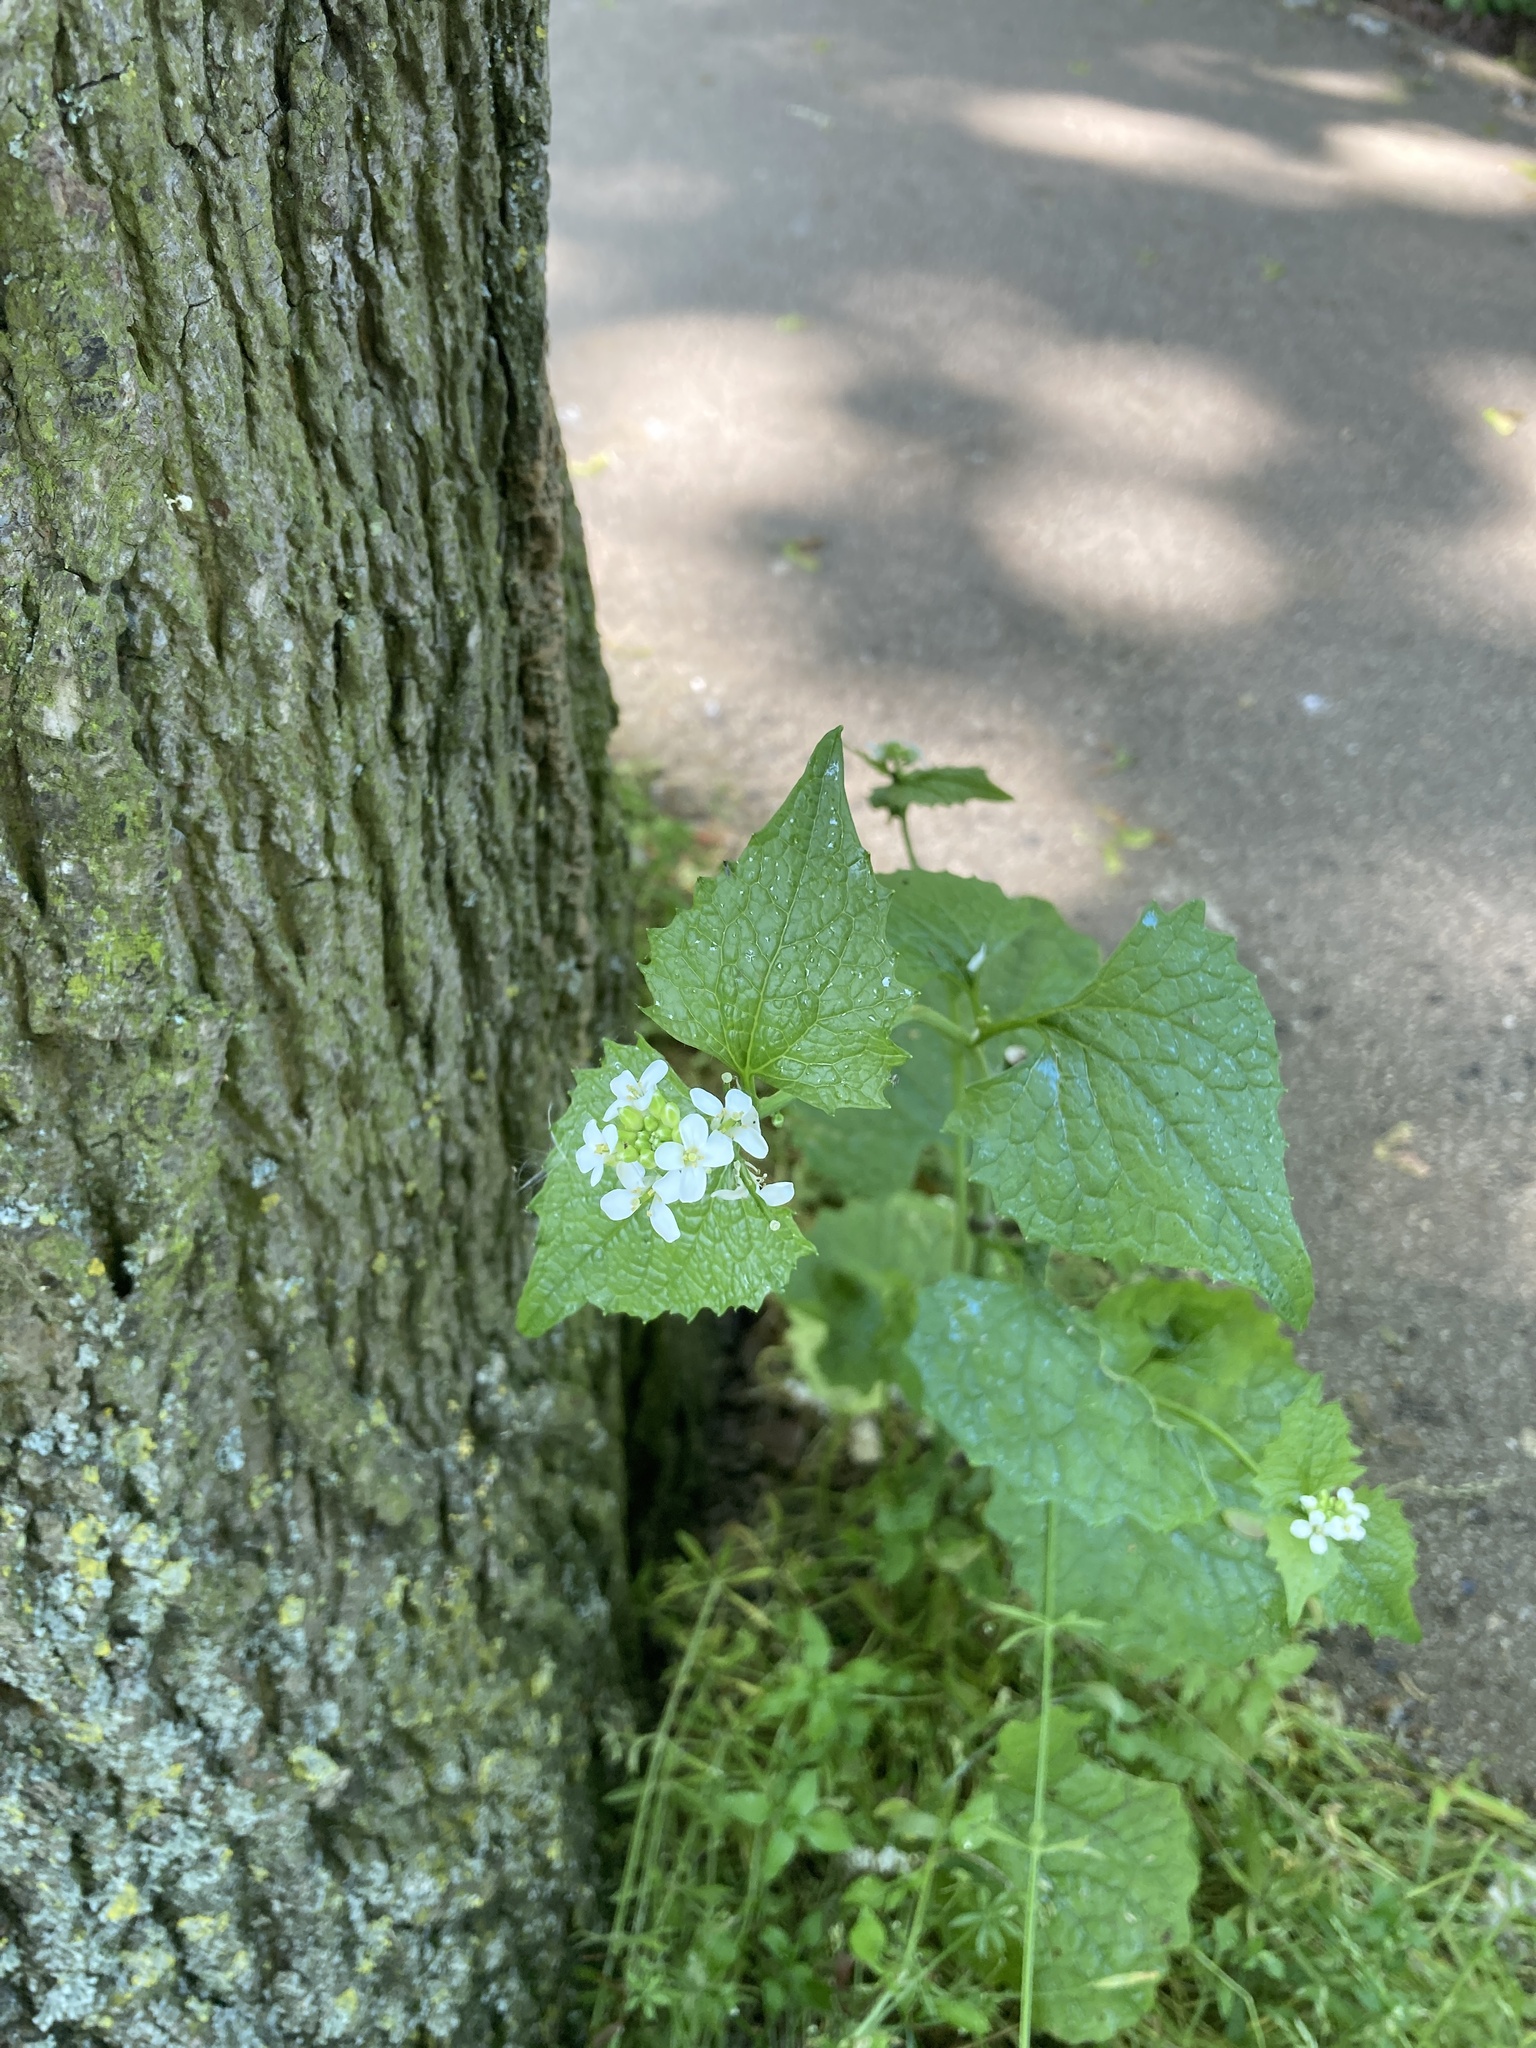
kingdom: Plantae
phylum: Tracheophyta
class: Magnoliopsida
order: Brassicales
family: Brassicaceae
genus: Alliaria
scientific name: Alliaria petiolata
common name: Garlic mustard
